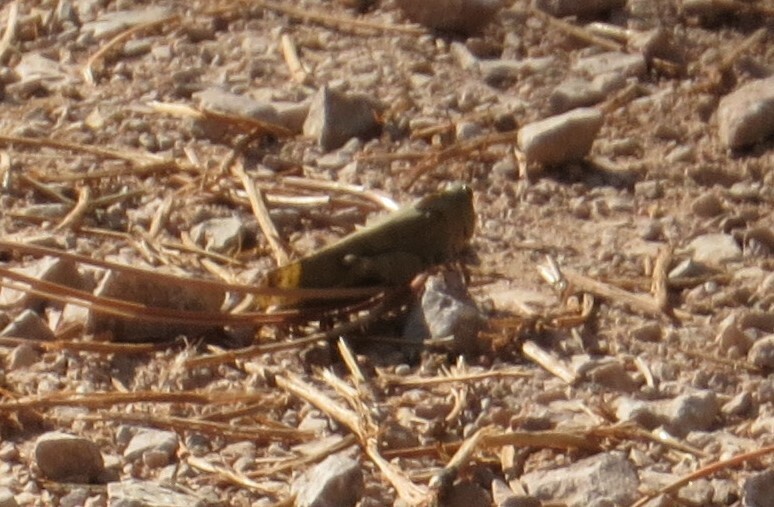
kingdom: Animalia
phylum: Arthropoda
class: Insecta
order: Orthoptera
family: Acrididae
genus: Dissosteira
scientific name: Dissosteira carolina
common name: Carolina grasshopper
